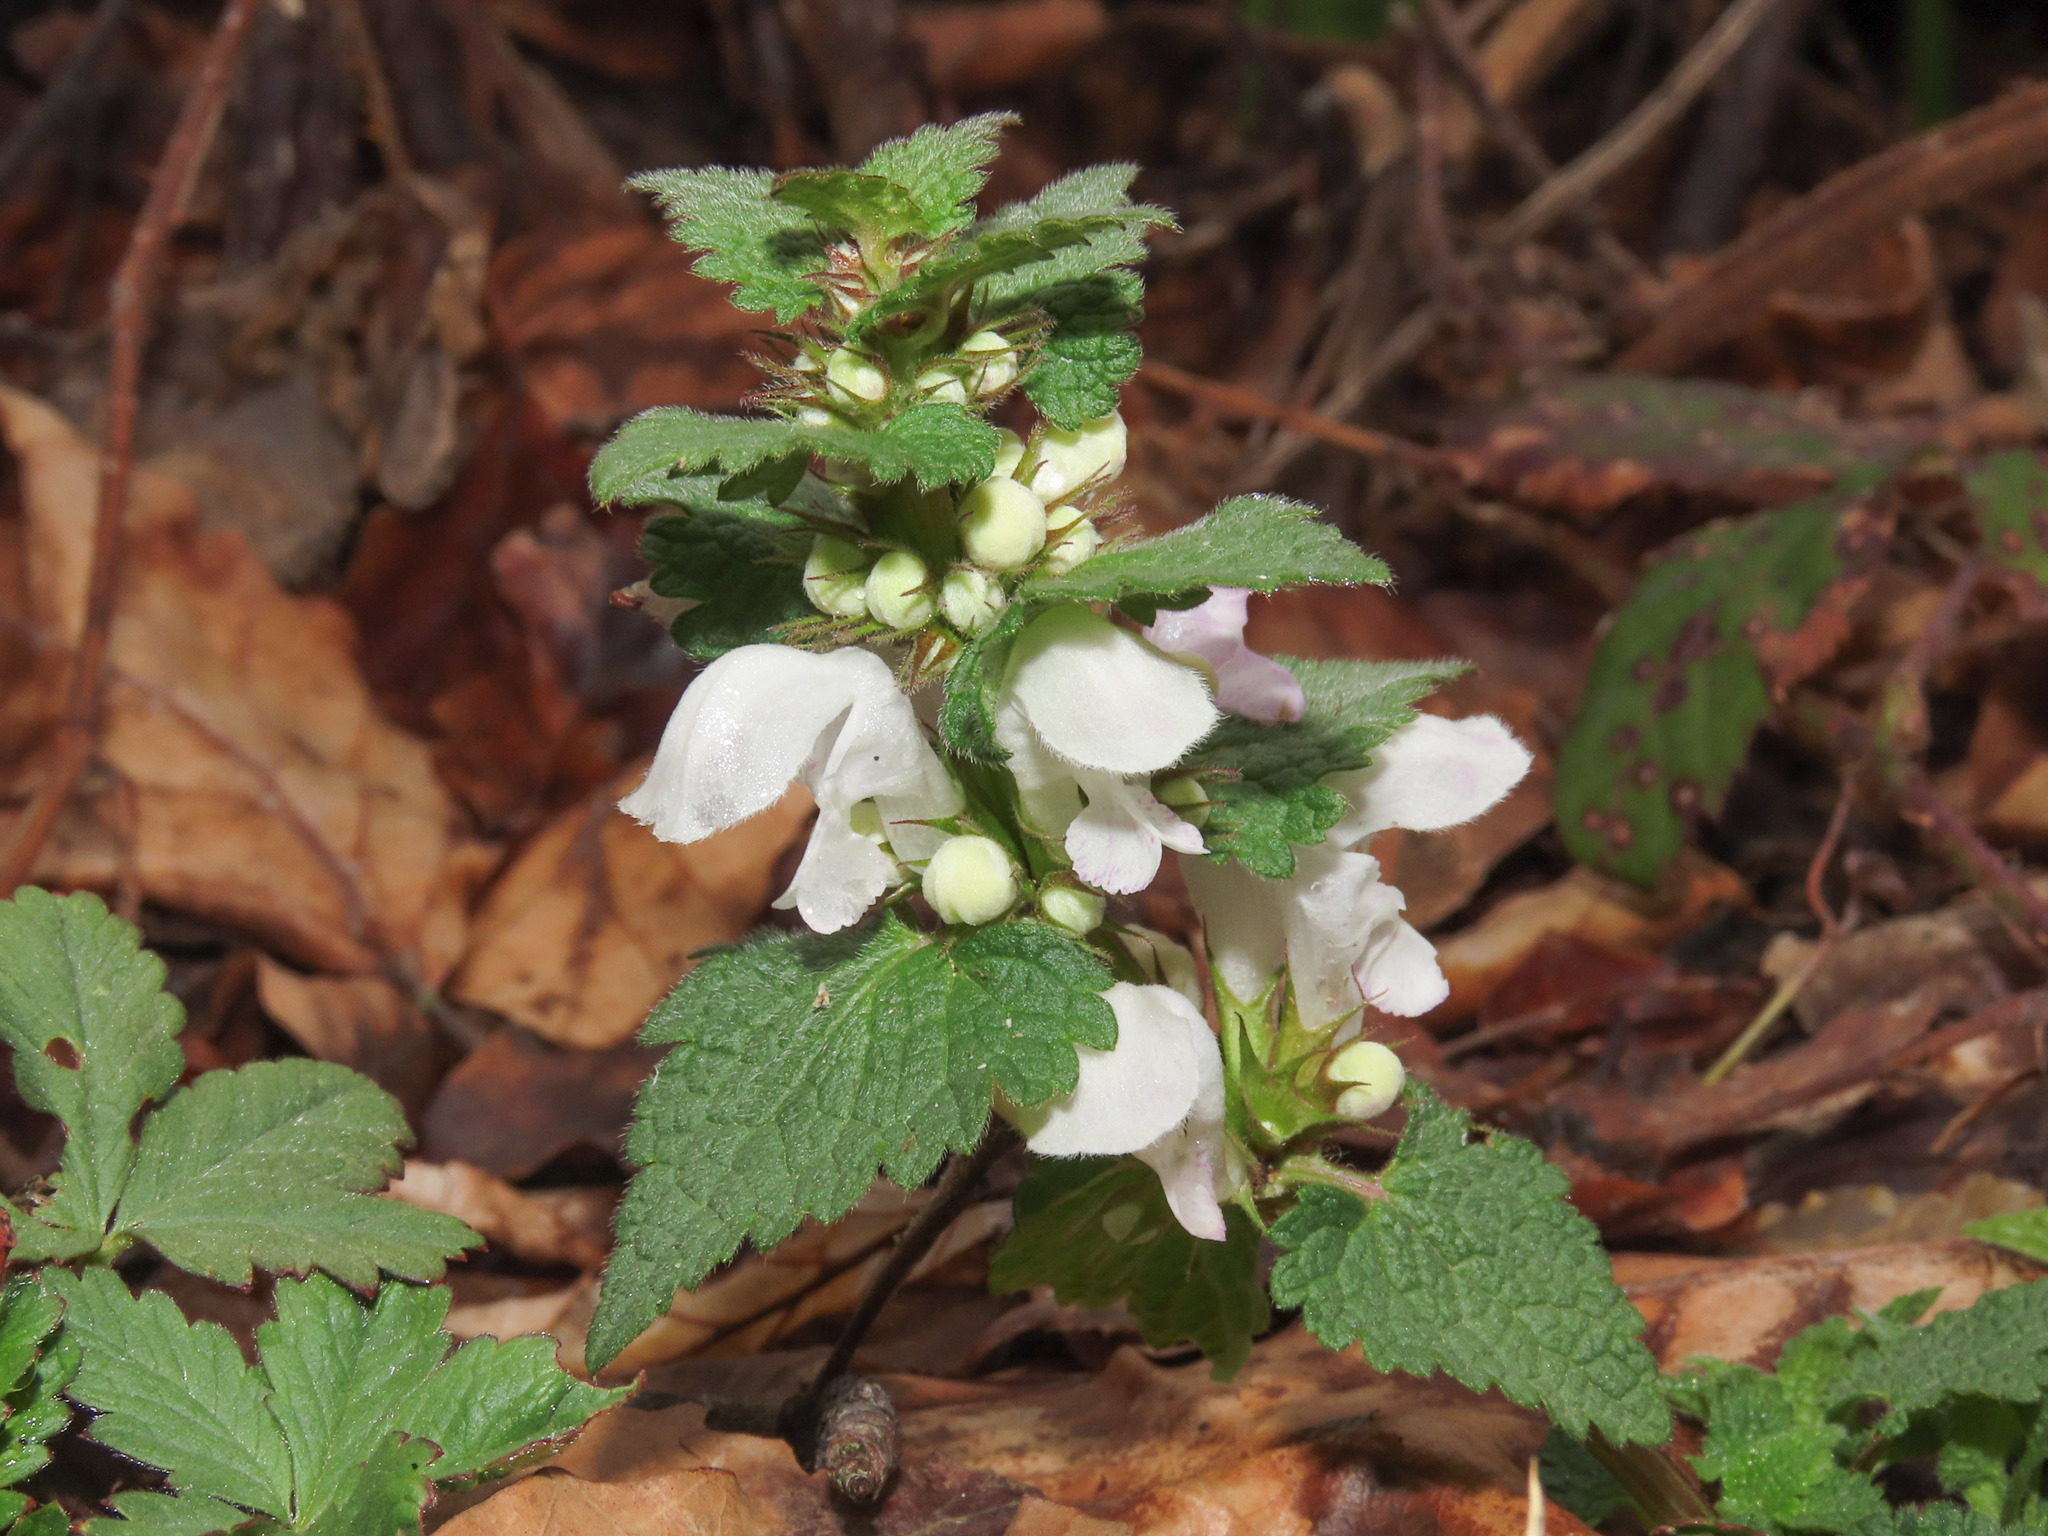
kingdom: Plantae
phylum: Tracheophyta
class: Magnoliopsida
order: Lamiales
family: Lamiaceae
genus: Lamium
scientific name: Lamium maculatum
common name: Spotted dead-nettle
